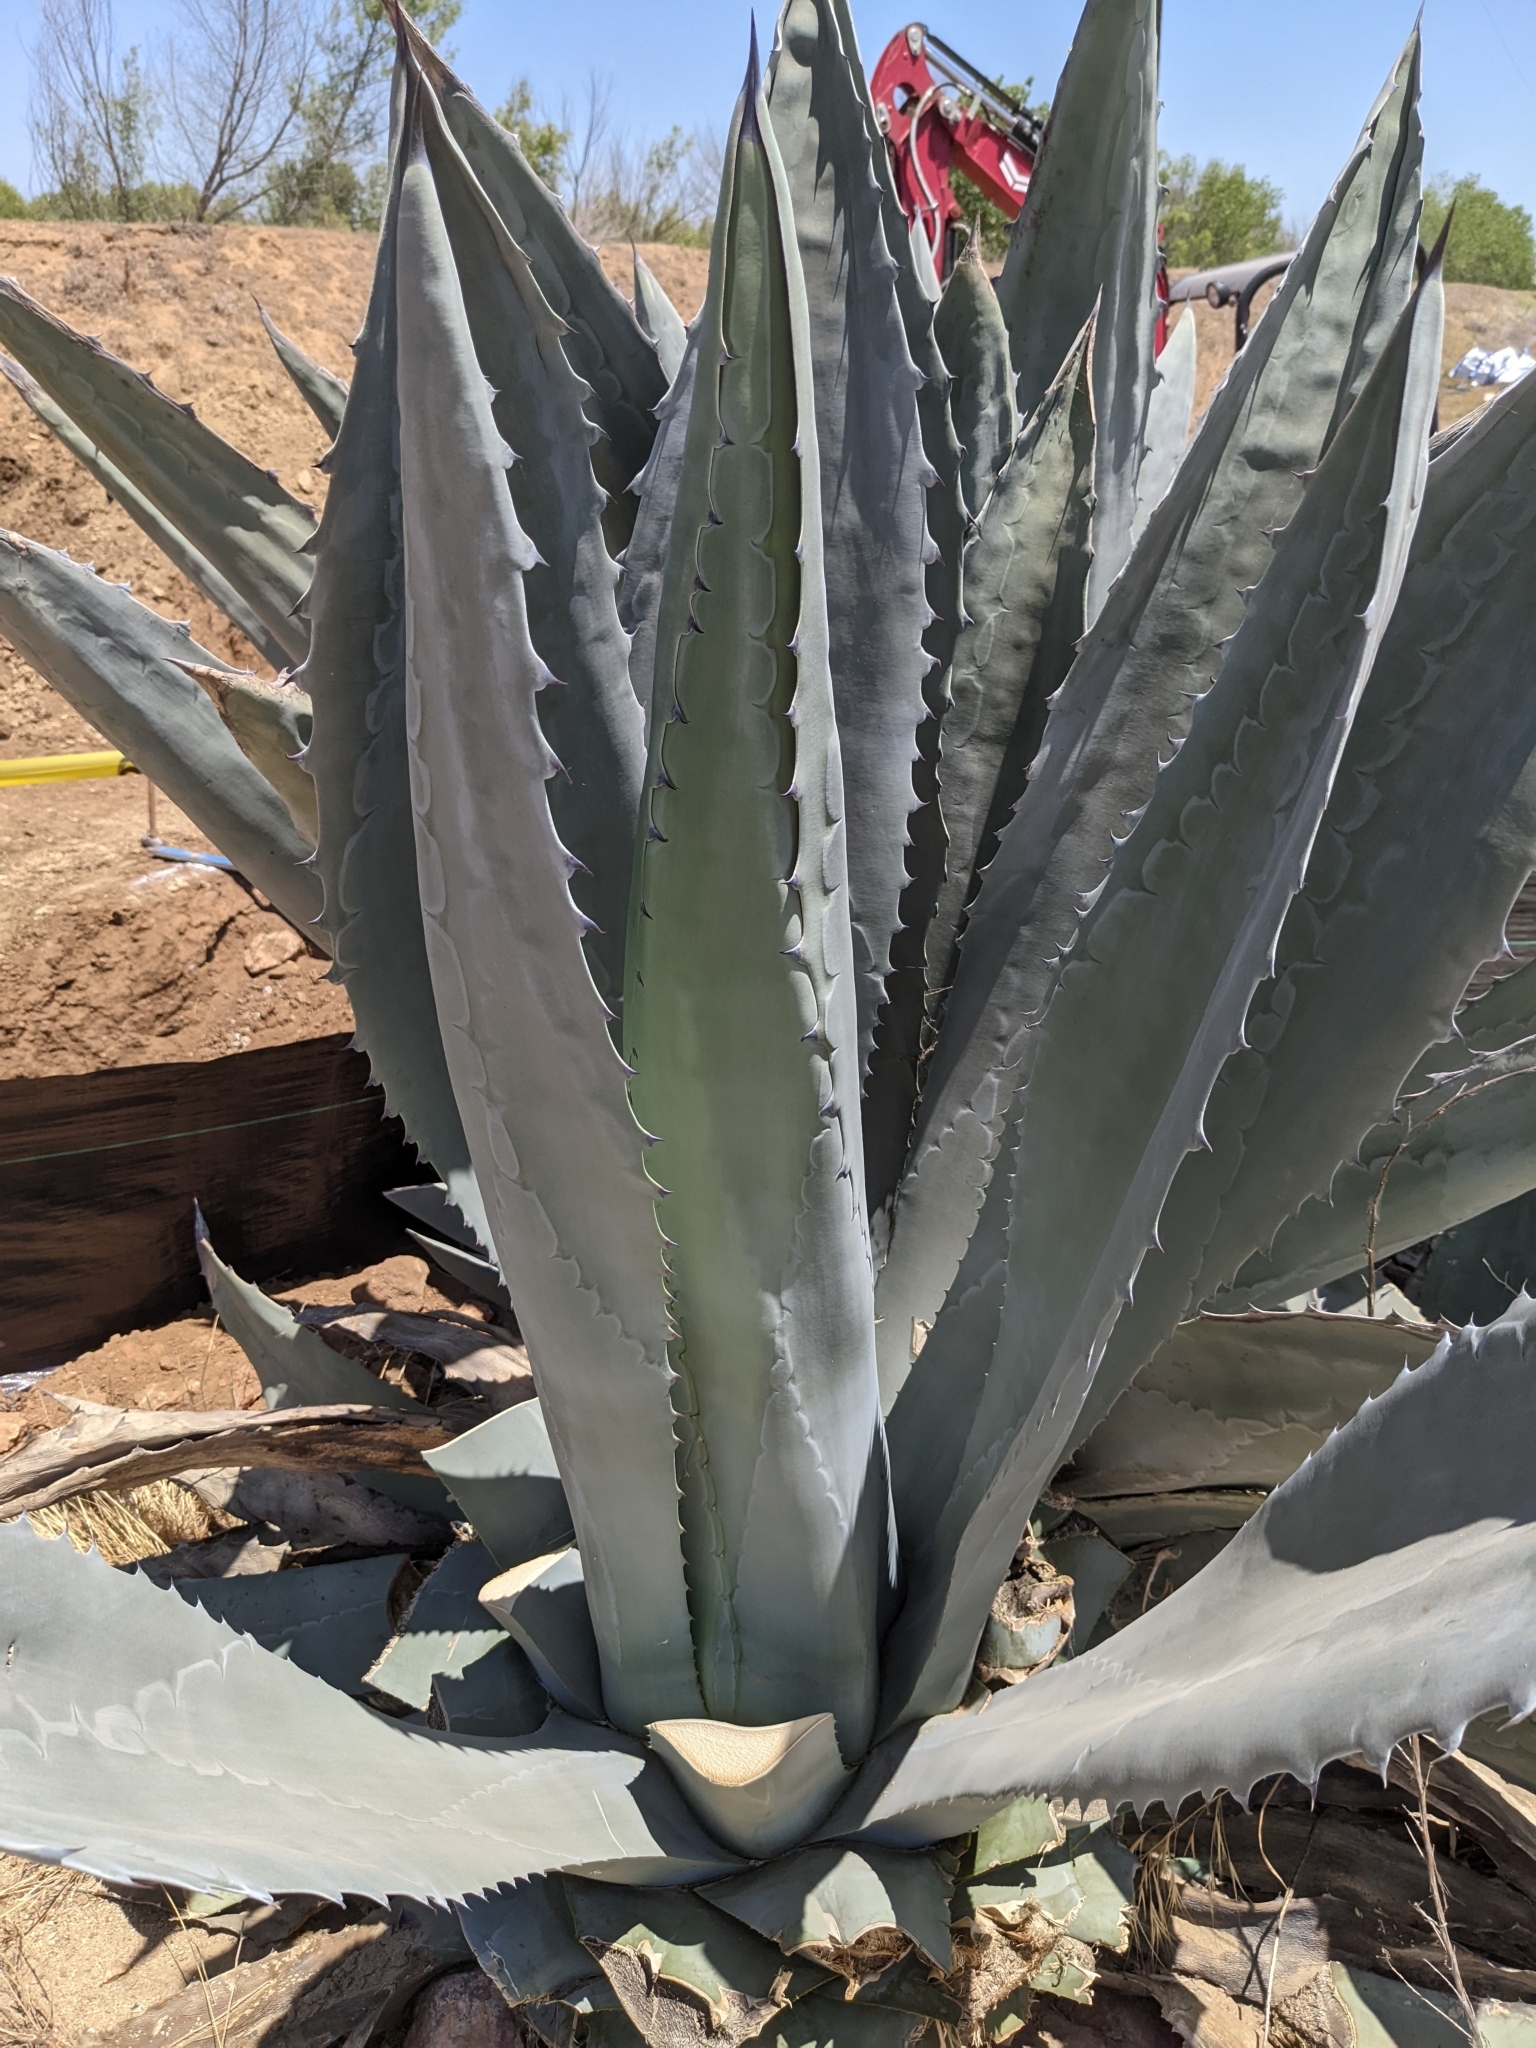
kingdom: Plantae
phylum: Tracheophyta
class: Liliopsida
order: Asparagales
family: Asparagaceae
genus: Agave
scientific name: Agave americana
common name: Centuryplant
